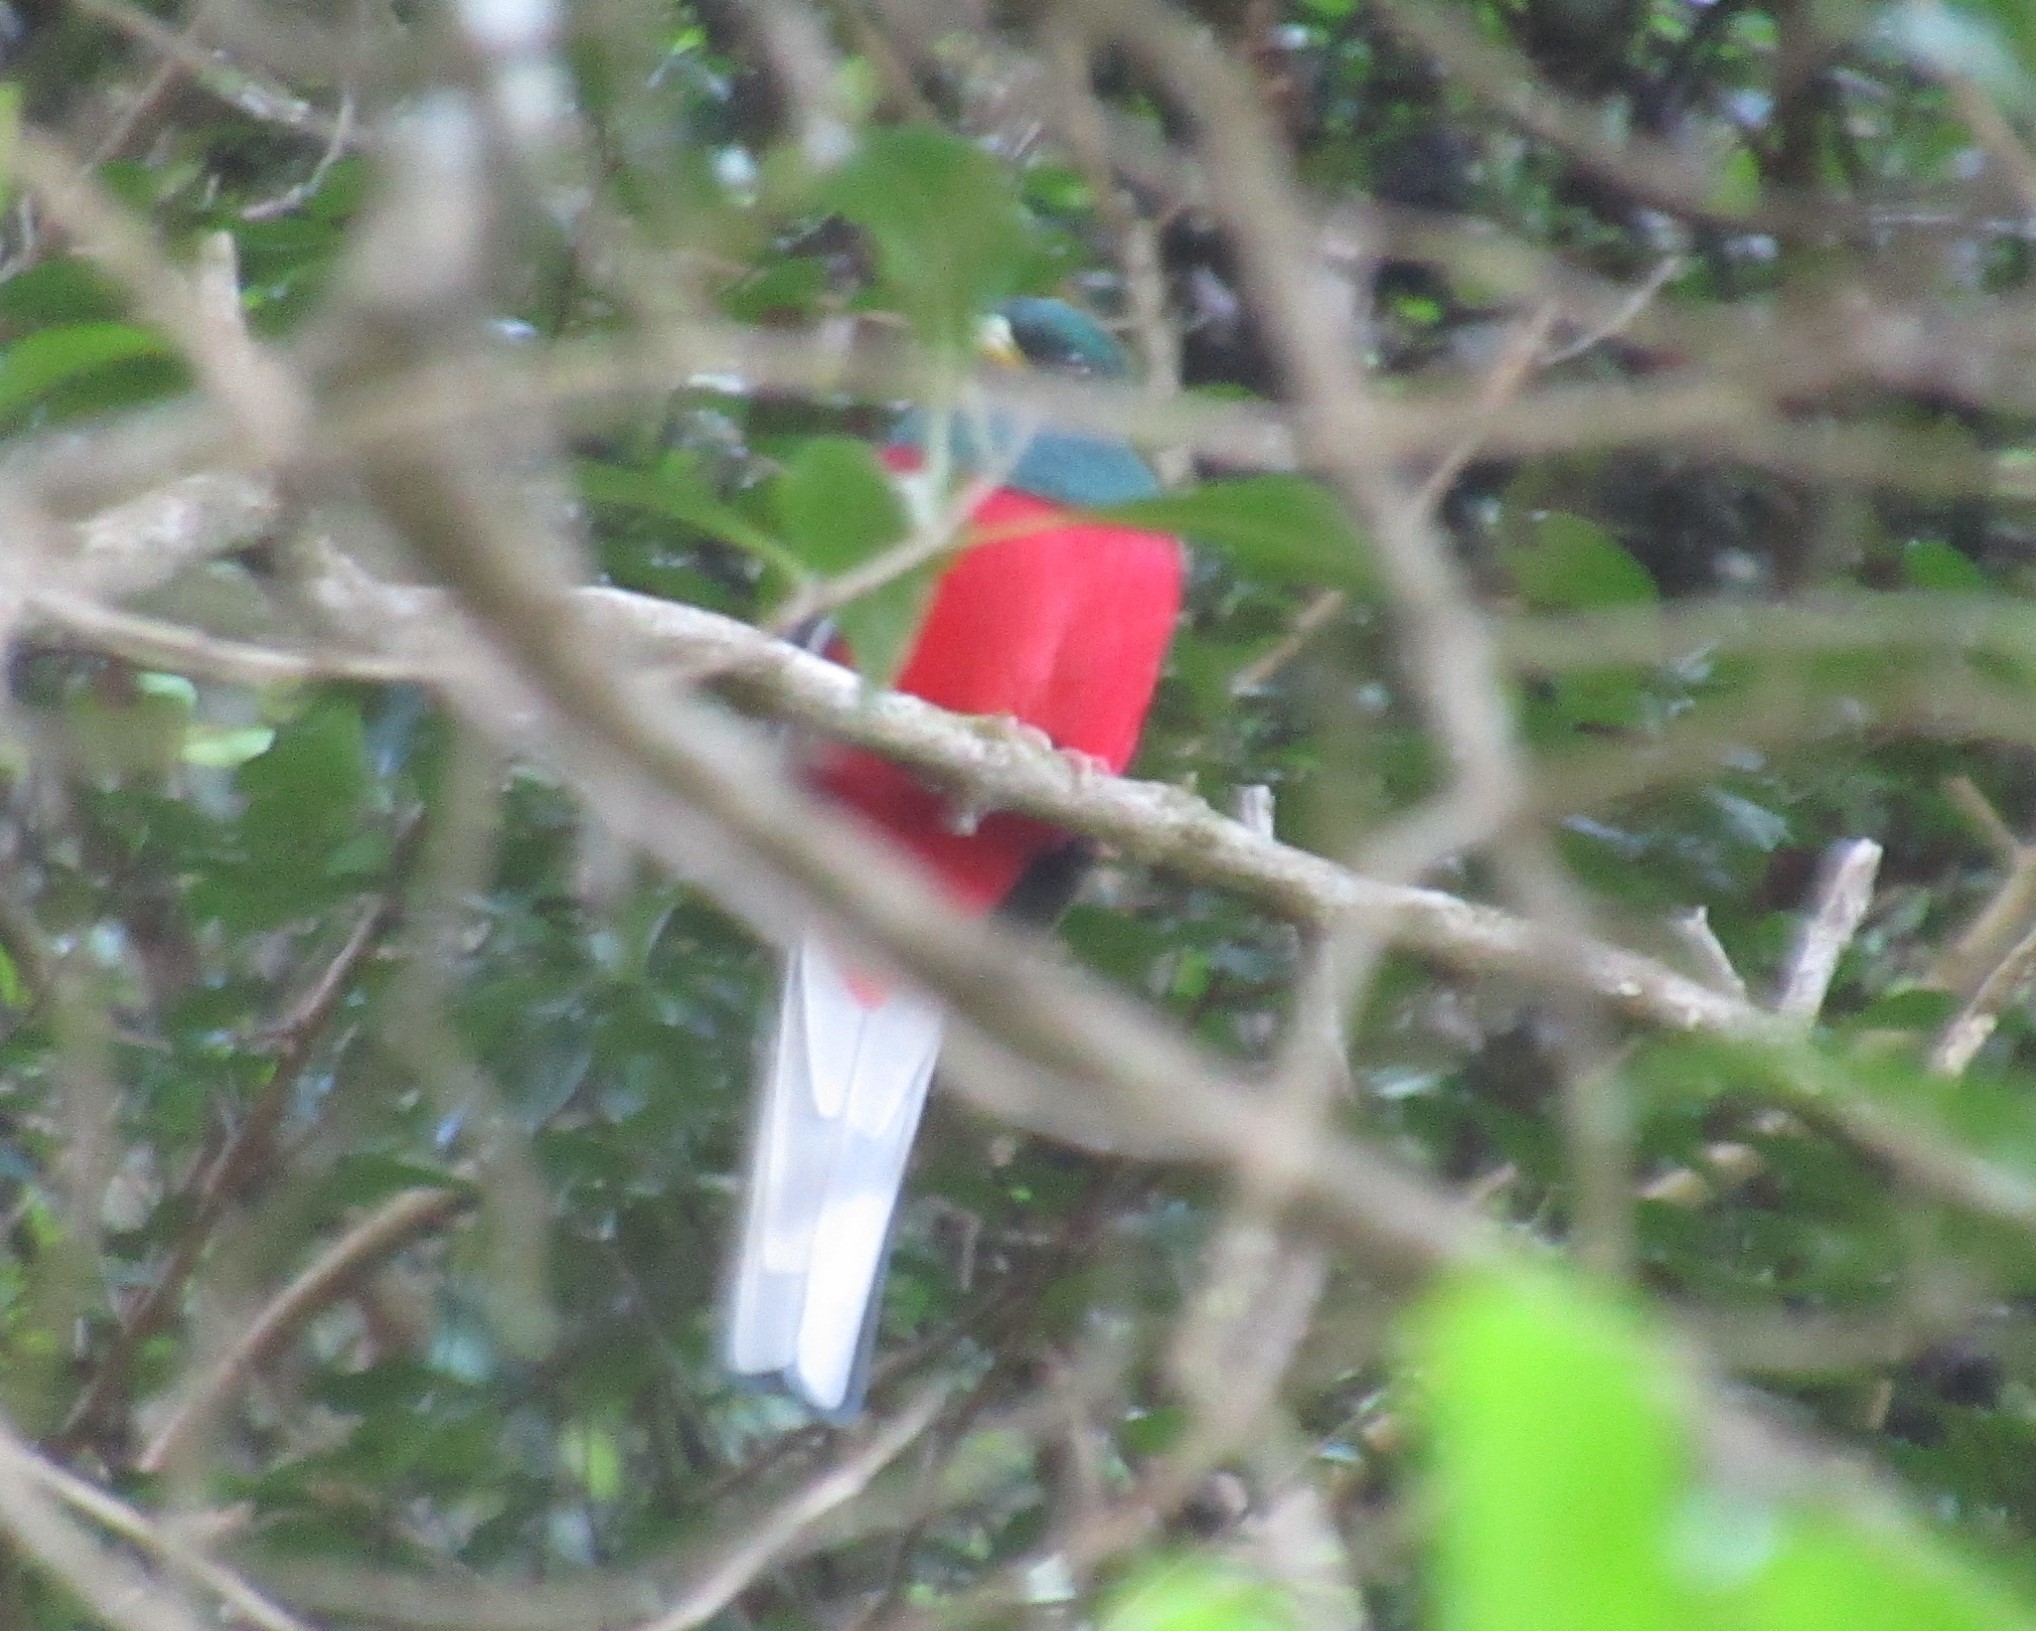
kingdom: Animalia
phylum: Chordata
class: Aves
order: Trogoniformes
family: Trogonidae
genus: Apaloderma
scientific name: Apaloderma narina
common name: Narina trogon
